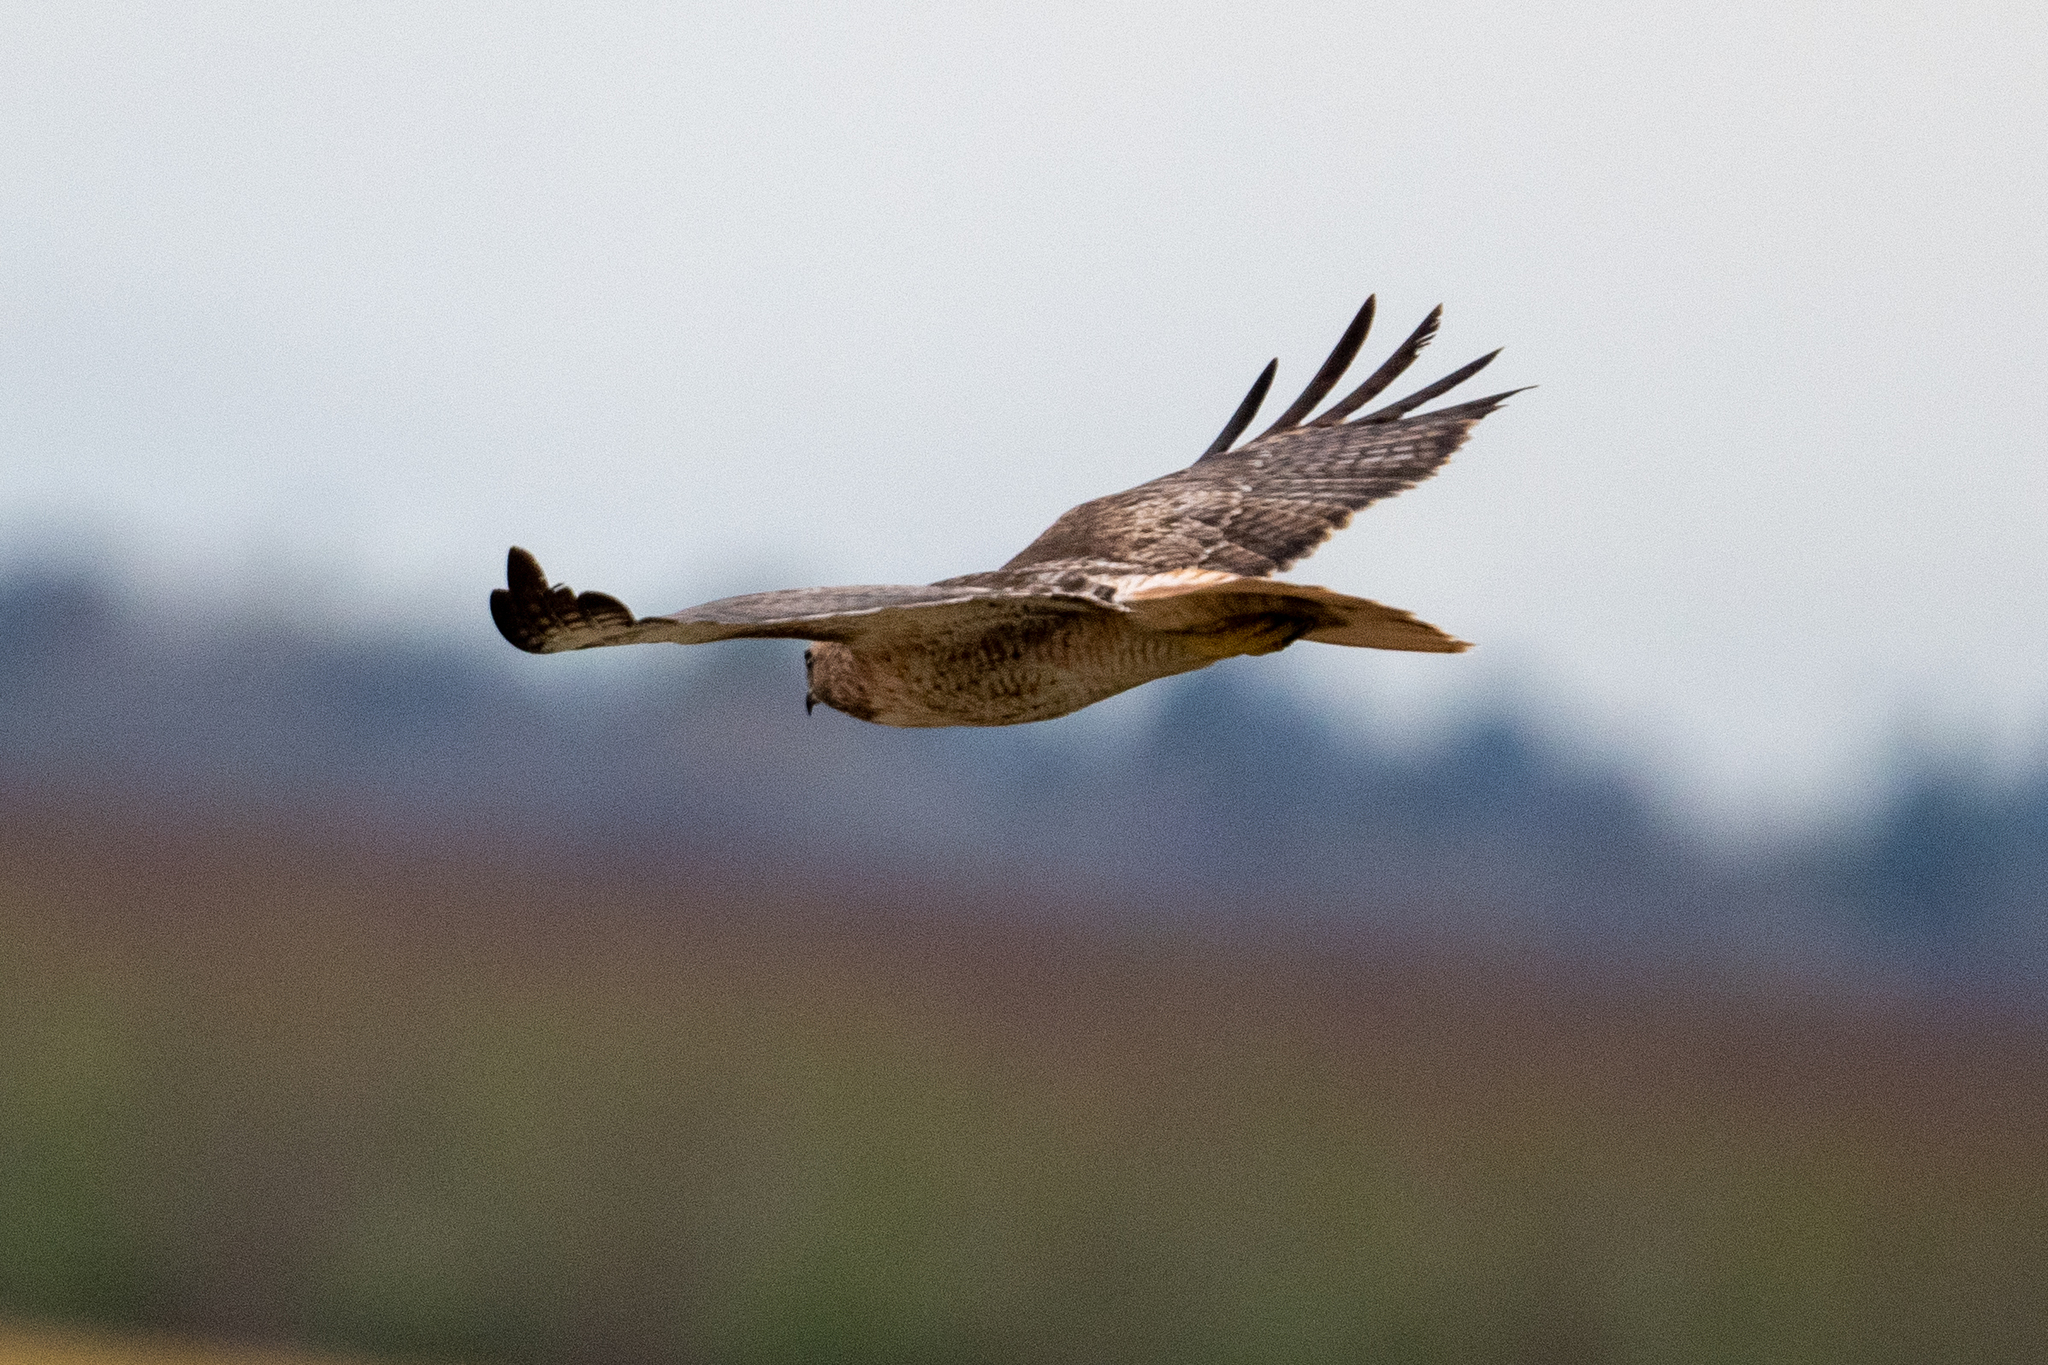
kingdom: Animalia
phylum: Chordata
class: Aves
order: Accipitriformes
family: Accipitridae
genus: Buteo
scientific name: Buteo jamaicensis
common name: Red-tailed hawk
